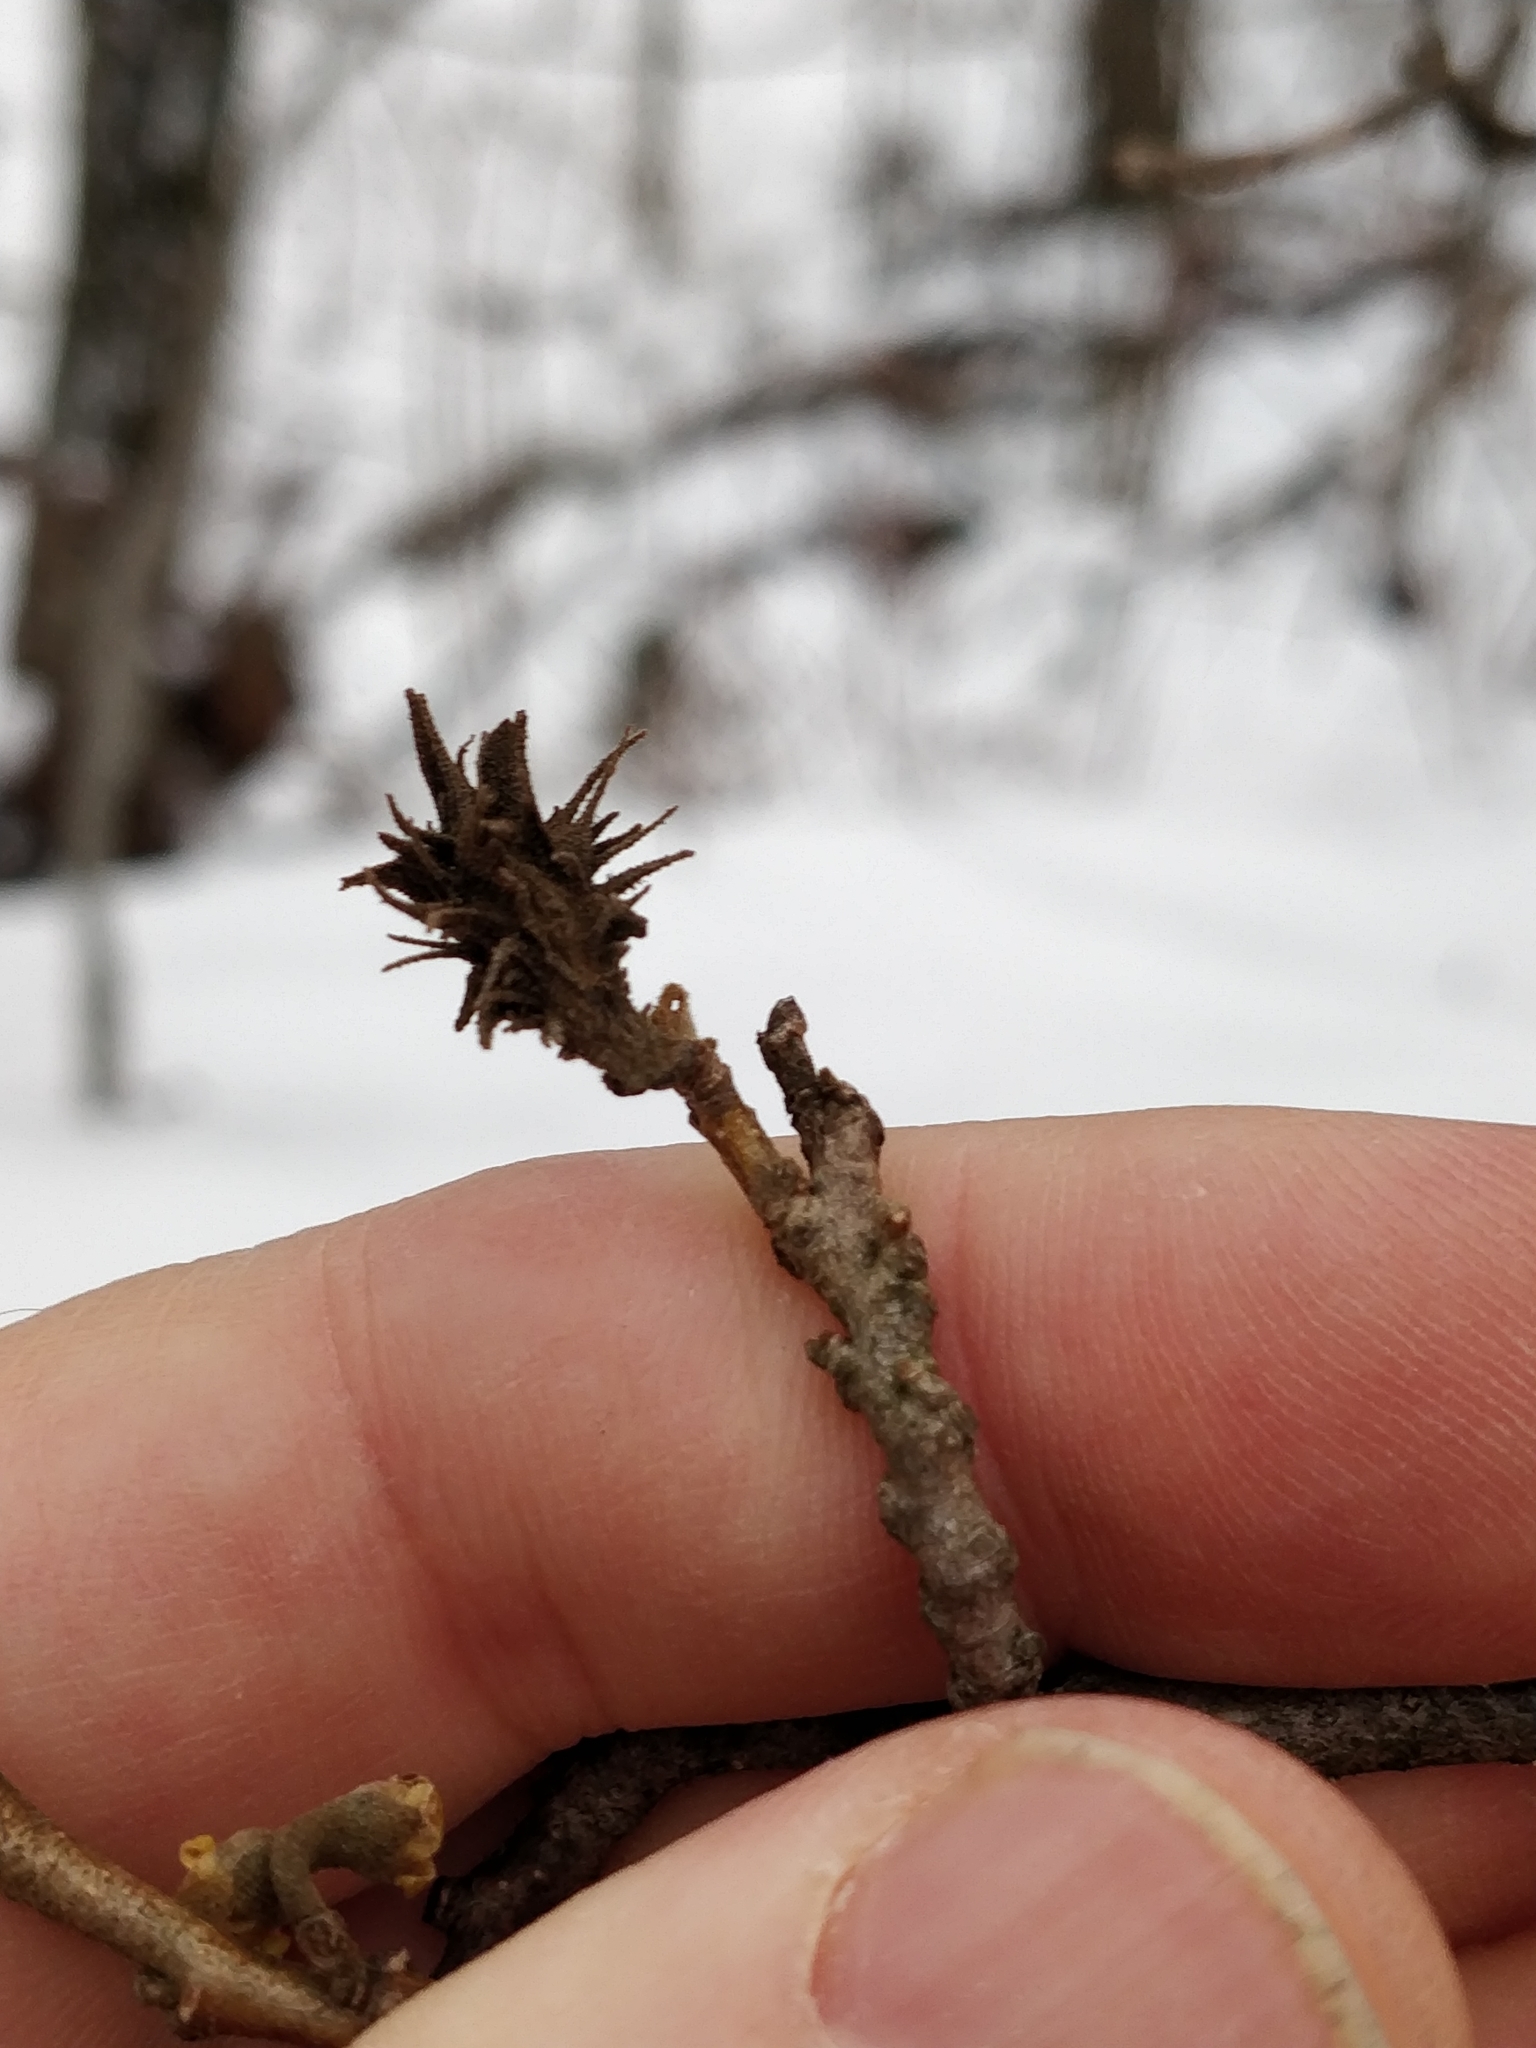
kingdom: Animalia
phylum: Arthropoda
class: Insecta
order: Hemiptera
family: Aphididae
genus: Hamamelistes
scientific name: Hamamelistes spinosus
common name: Witch hazel gall aphid
